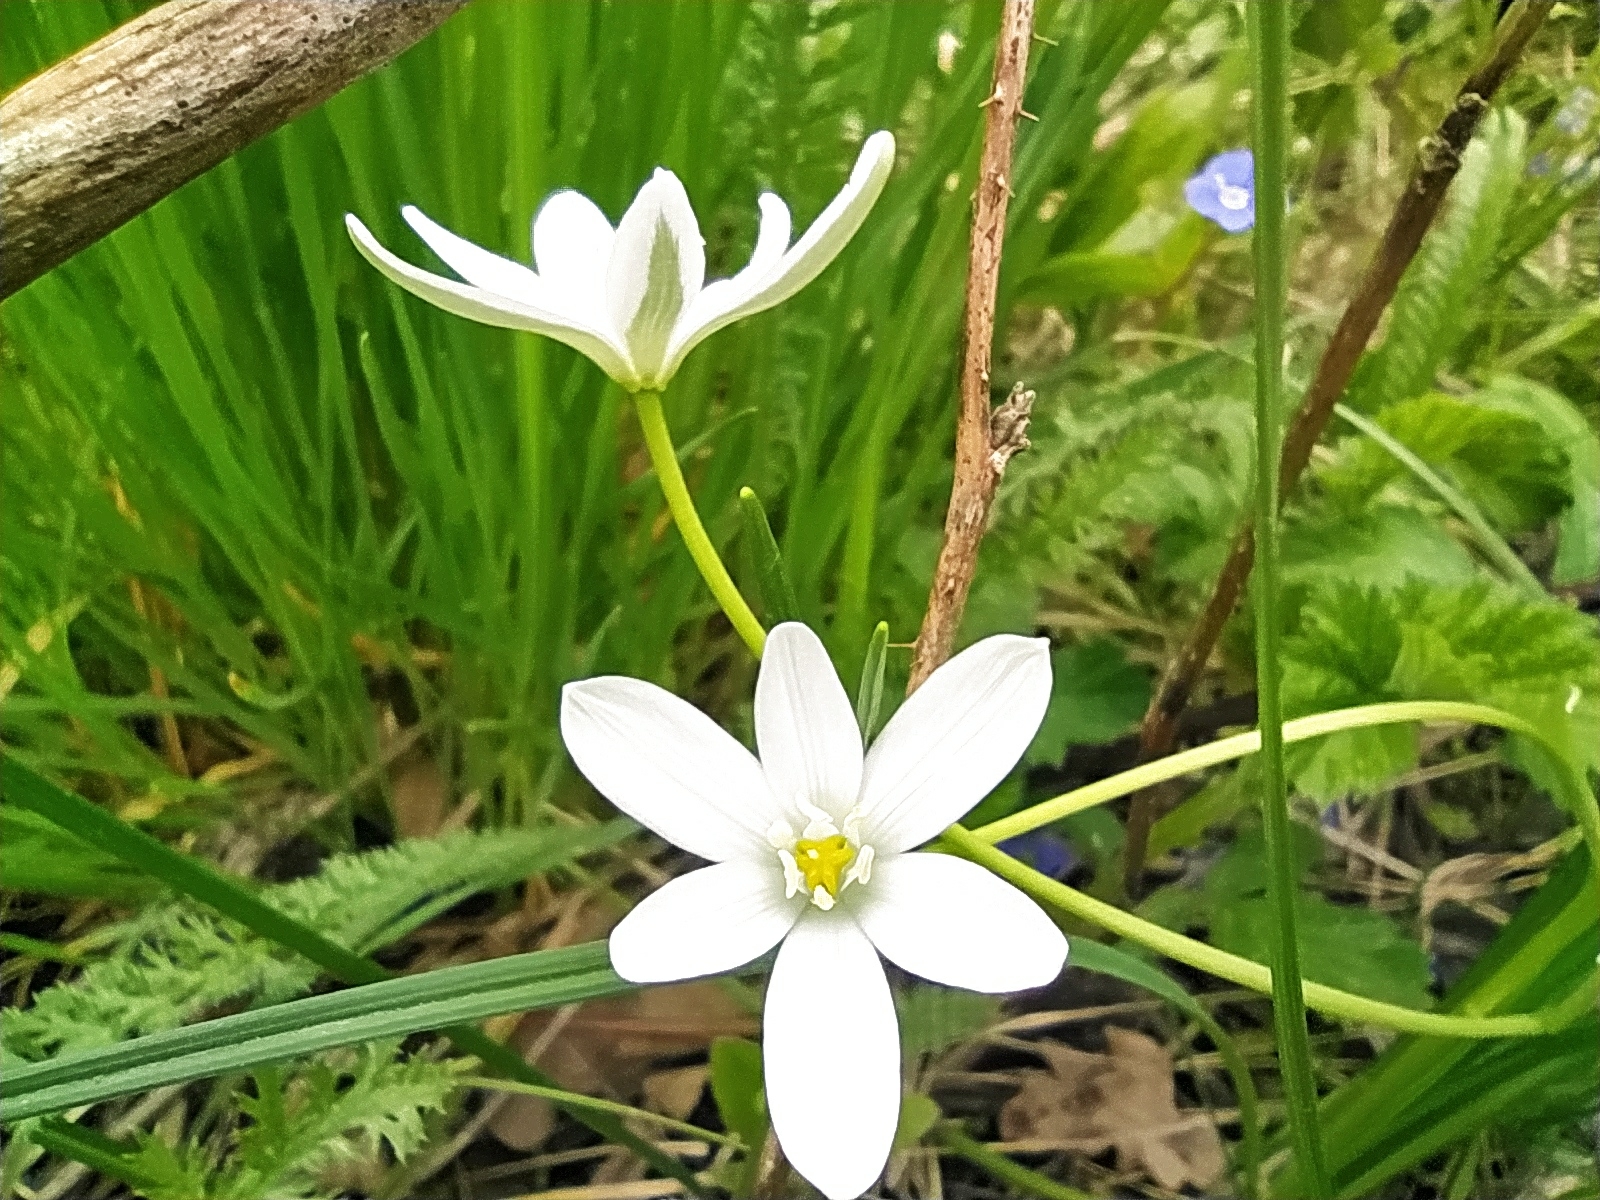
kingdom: Plantae
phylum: Tracheophyta
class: Liliopsida
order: Asparagales
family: Asparagaceae
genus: Ornithogalum
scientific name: Ornithogalum woronowii
